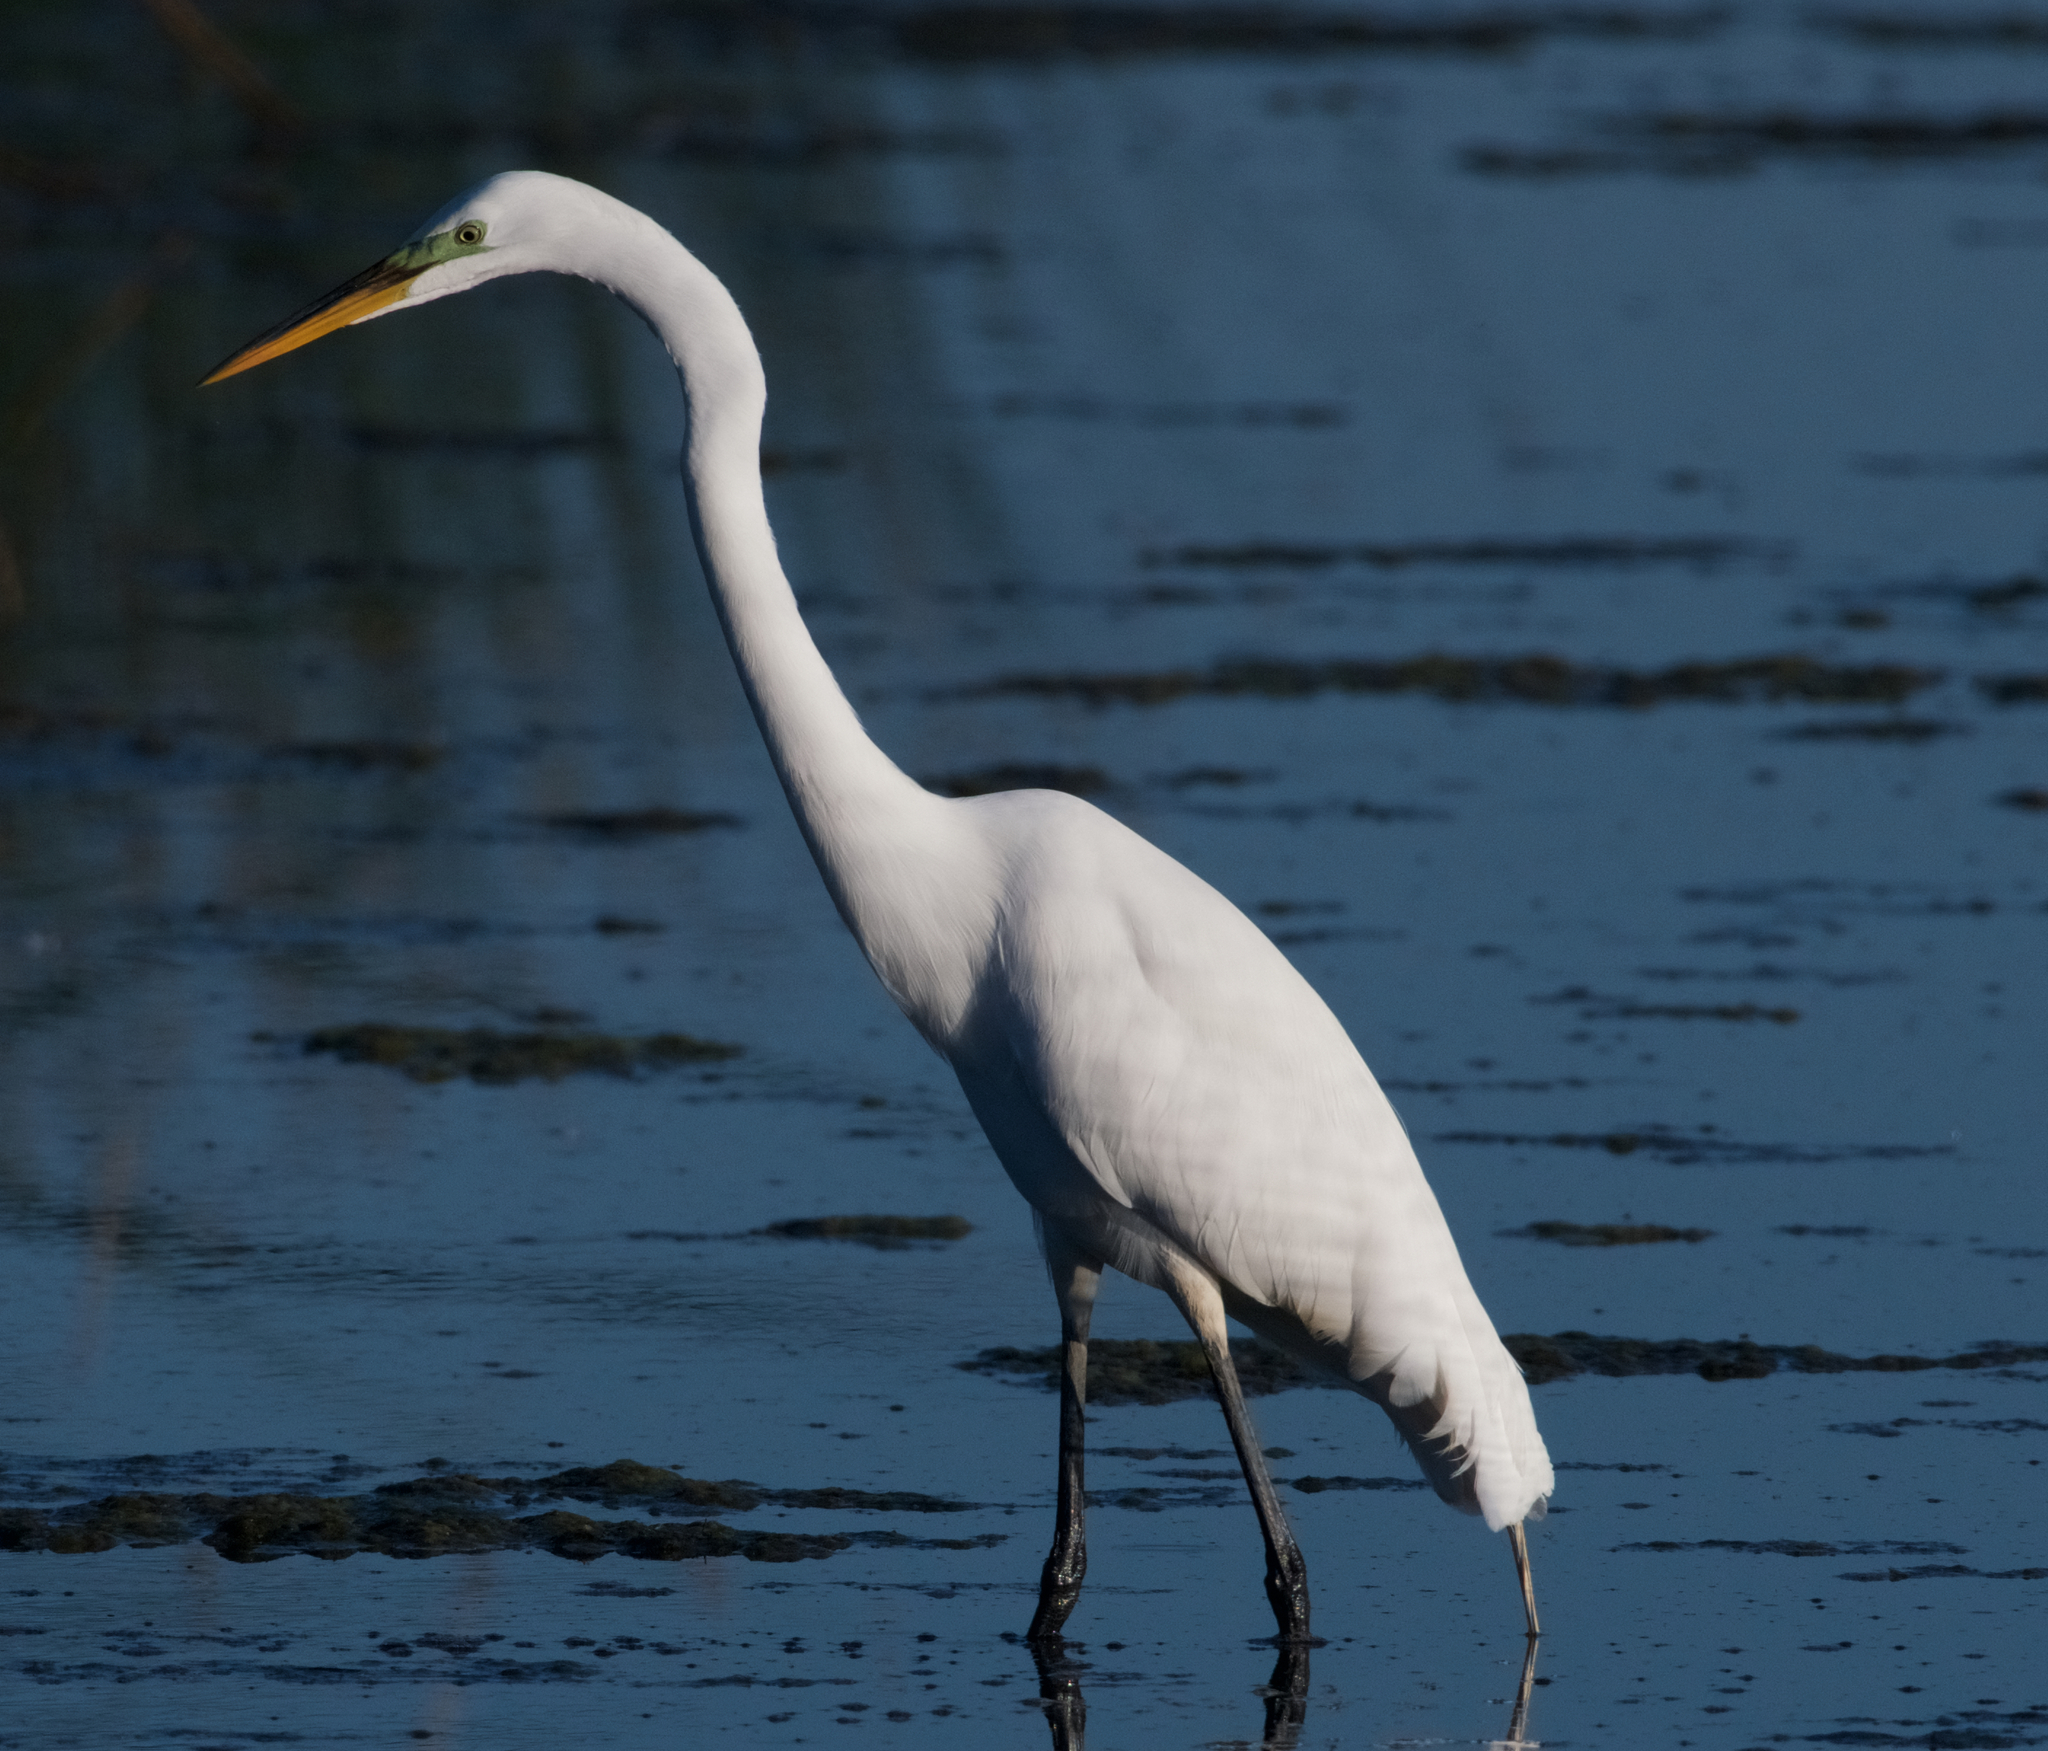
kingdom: Animalia
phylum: Chordata
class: Aves
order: Pelecaniformes
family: Ardeidae
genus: Ardea
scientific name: Ardea alba
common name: Great egret
